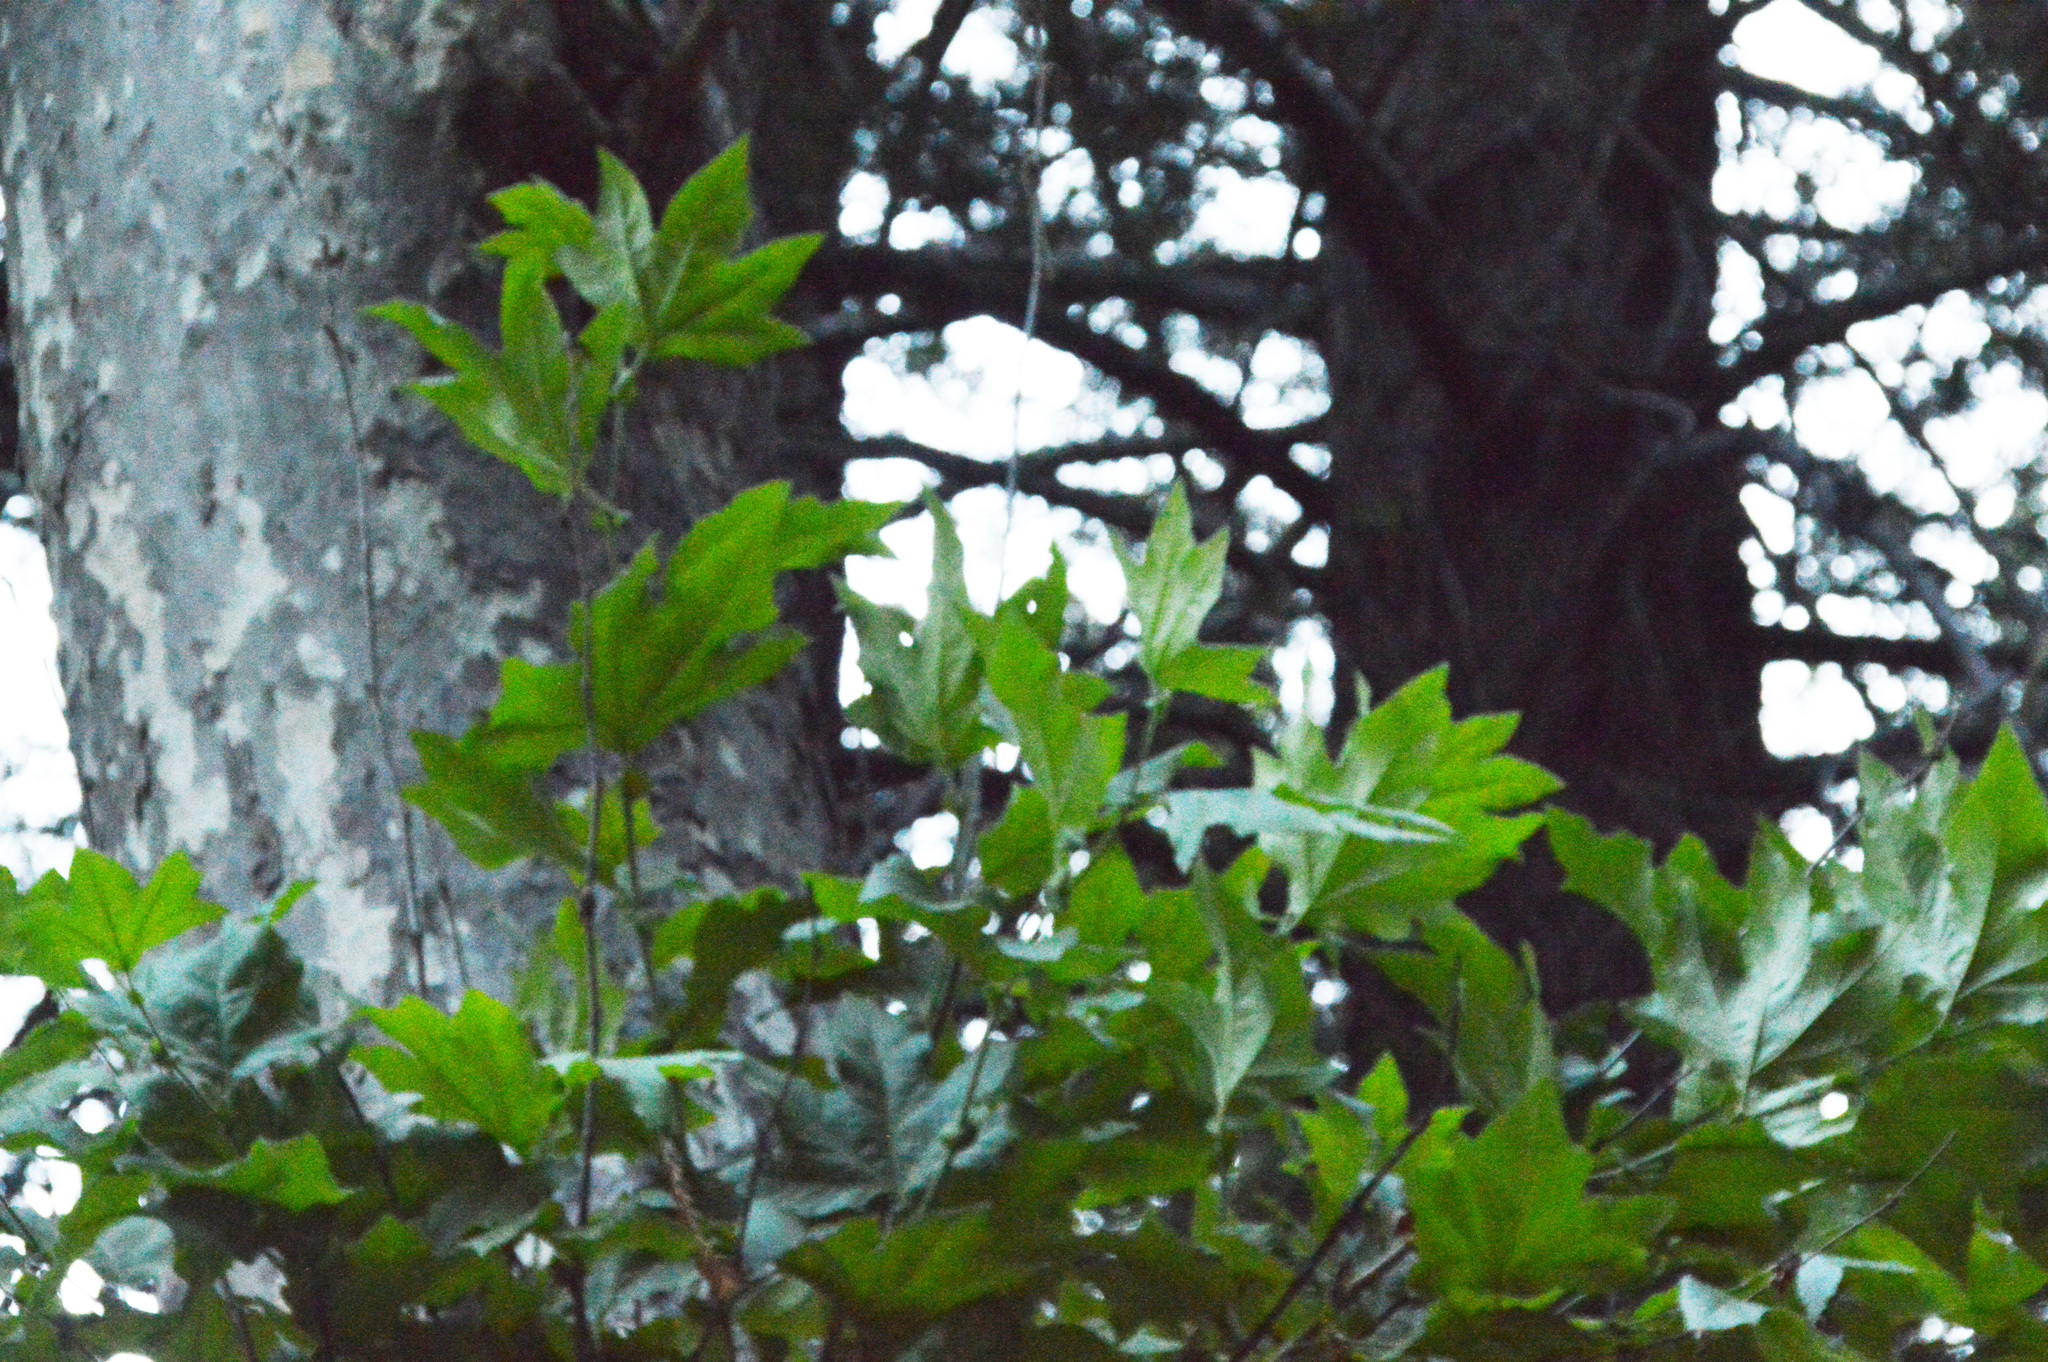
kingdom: Plantae
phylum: Tracheophyta
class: Magnoliopsida
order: Proteales
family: Platanaceae
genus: Platanus
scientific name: Platanus racemosa
